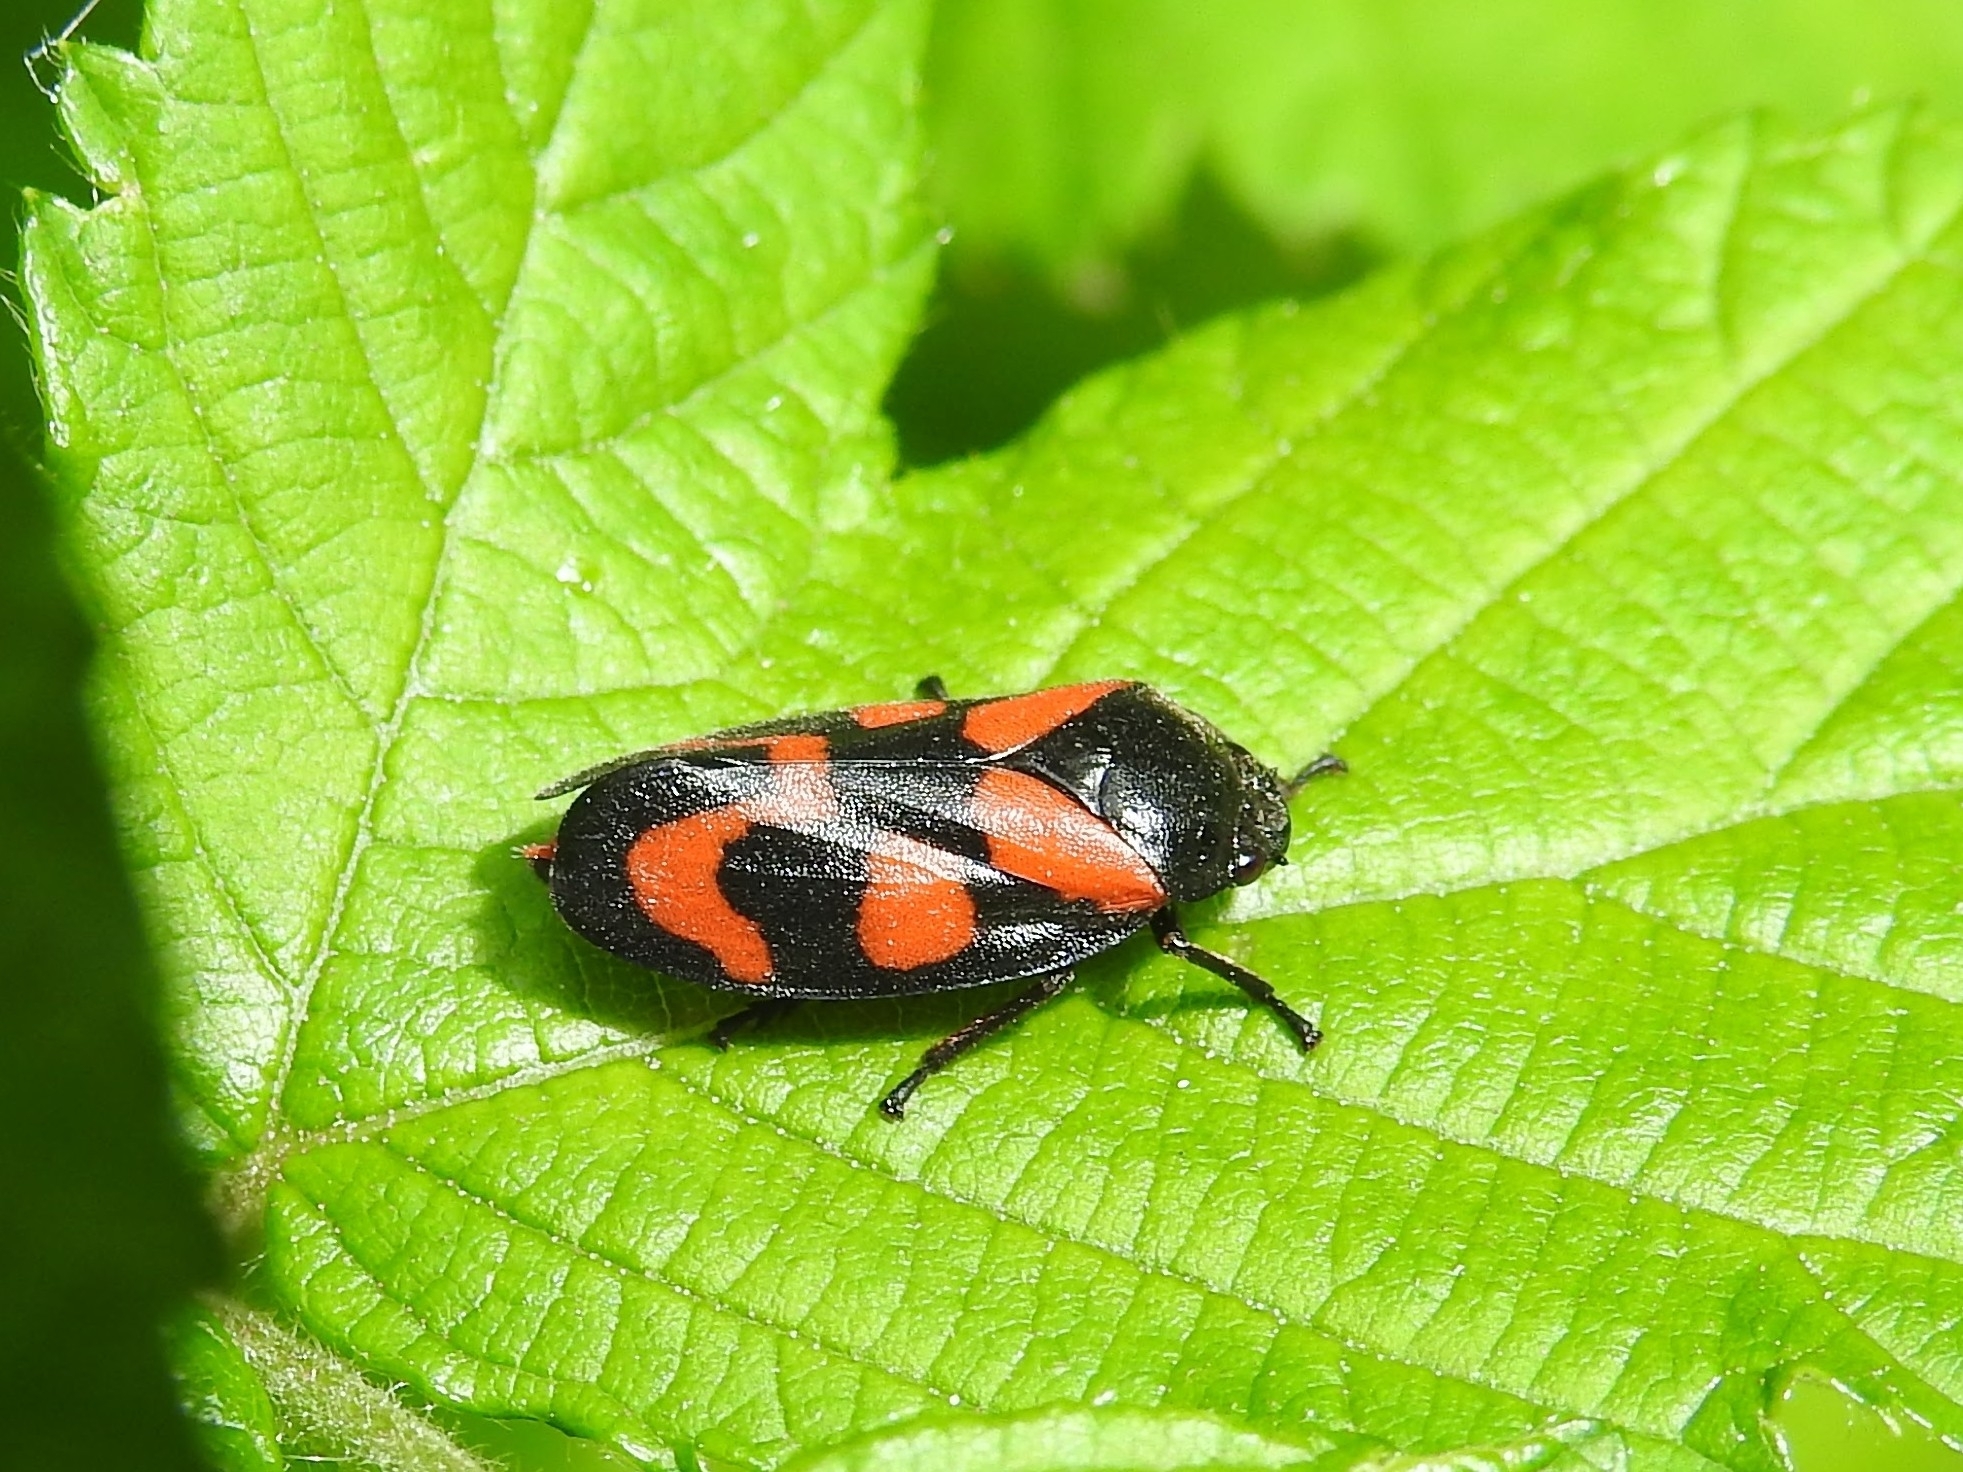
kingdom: Animalia
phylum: Arthropoda
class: Insecta
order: Hemiptera
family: Cercopidae
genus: Cercopis
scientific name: Cercopis vulnerata
